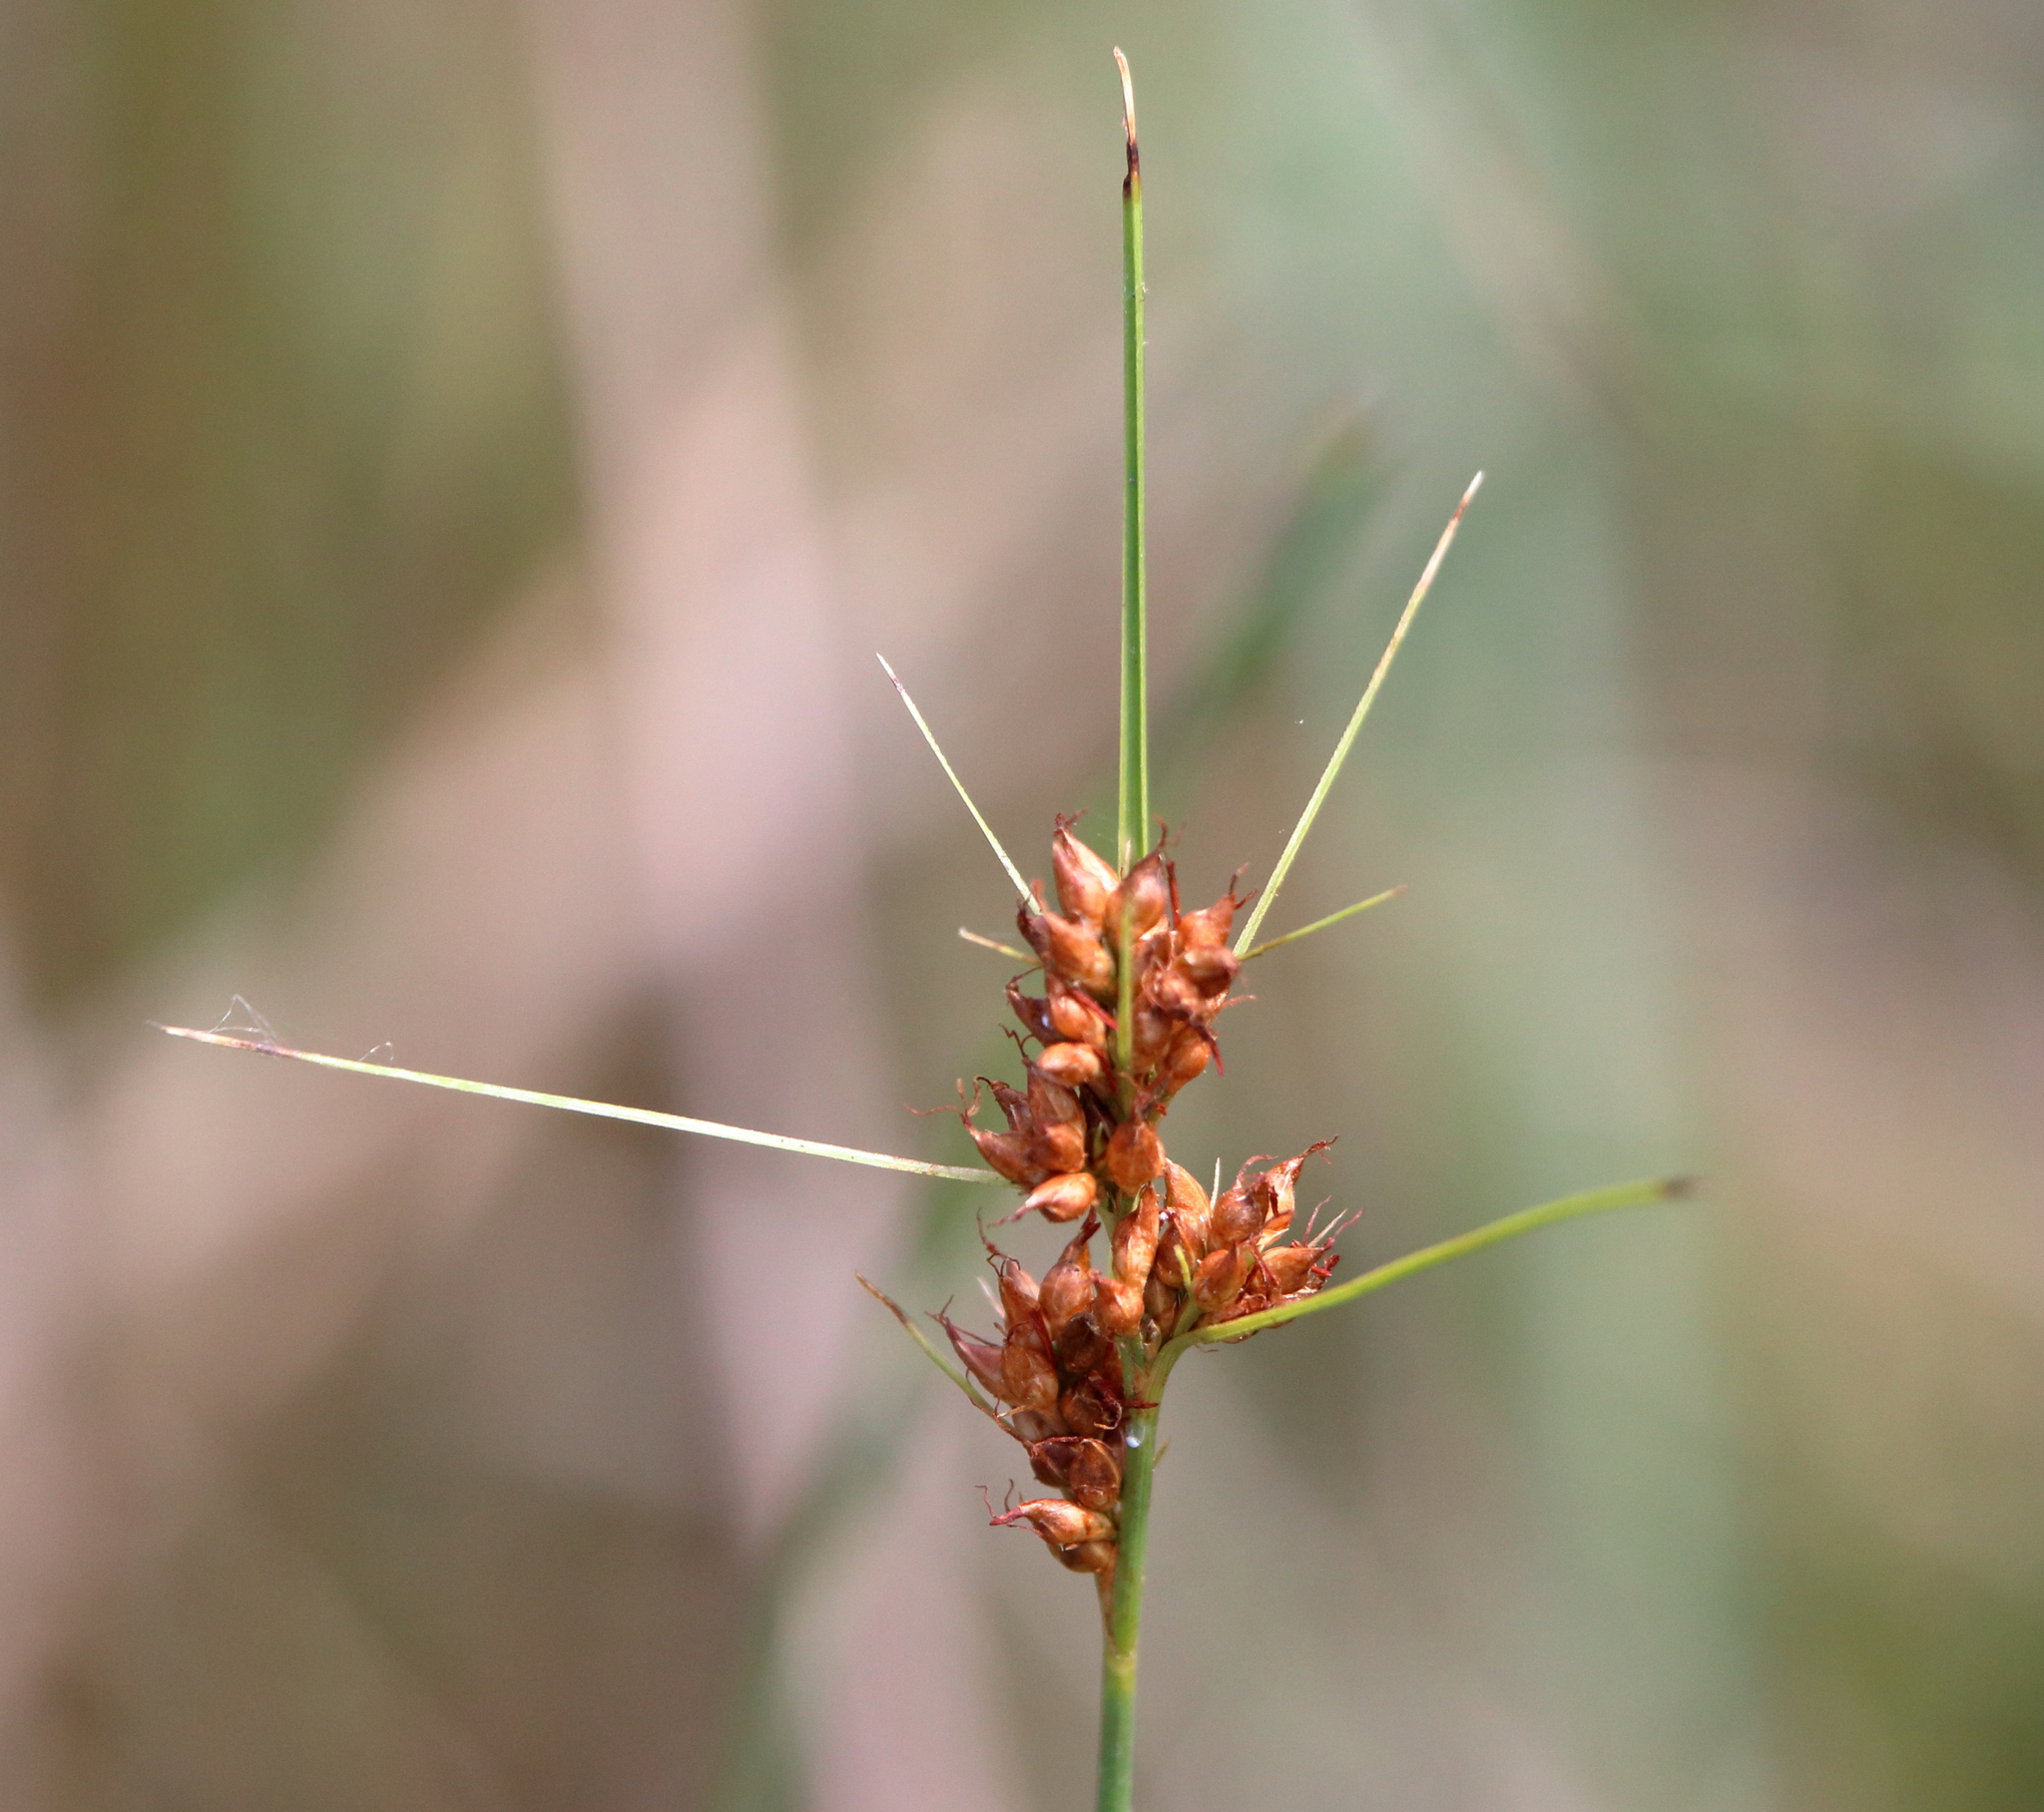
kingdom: Plantae
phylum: Tracheophyta
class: Liliopsida
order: Poales
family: Cyperaceae
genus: Rhynchospora
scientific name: Rhynchospora marliniana
